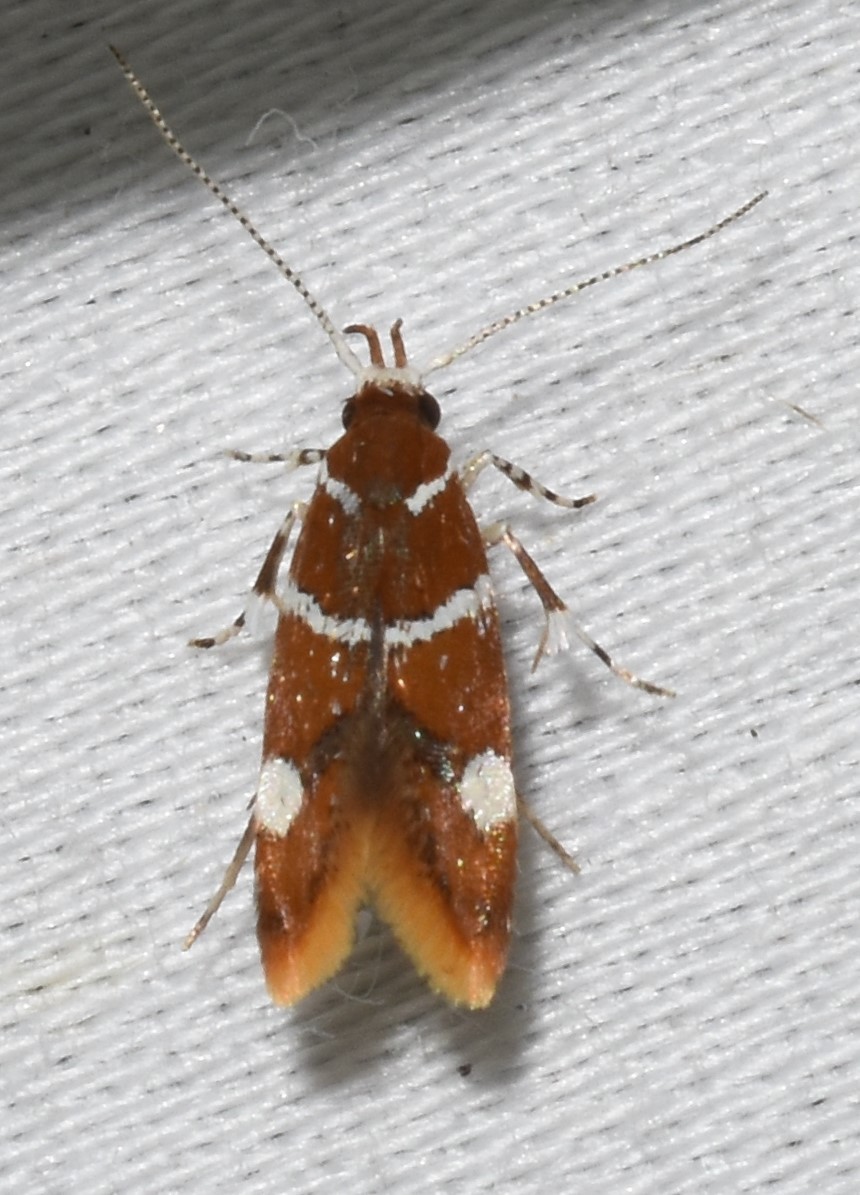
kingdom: Animalia
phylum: Arthropoda
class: Insecta
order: Lepidoptera
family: Oecophoridae
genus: Promalactis
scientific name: Promalactis suzukiella
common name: Moth
